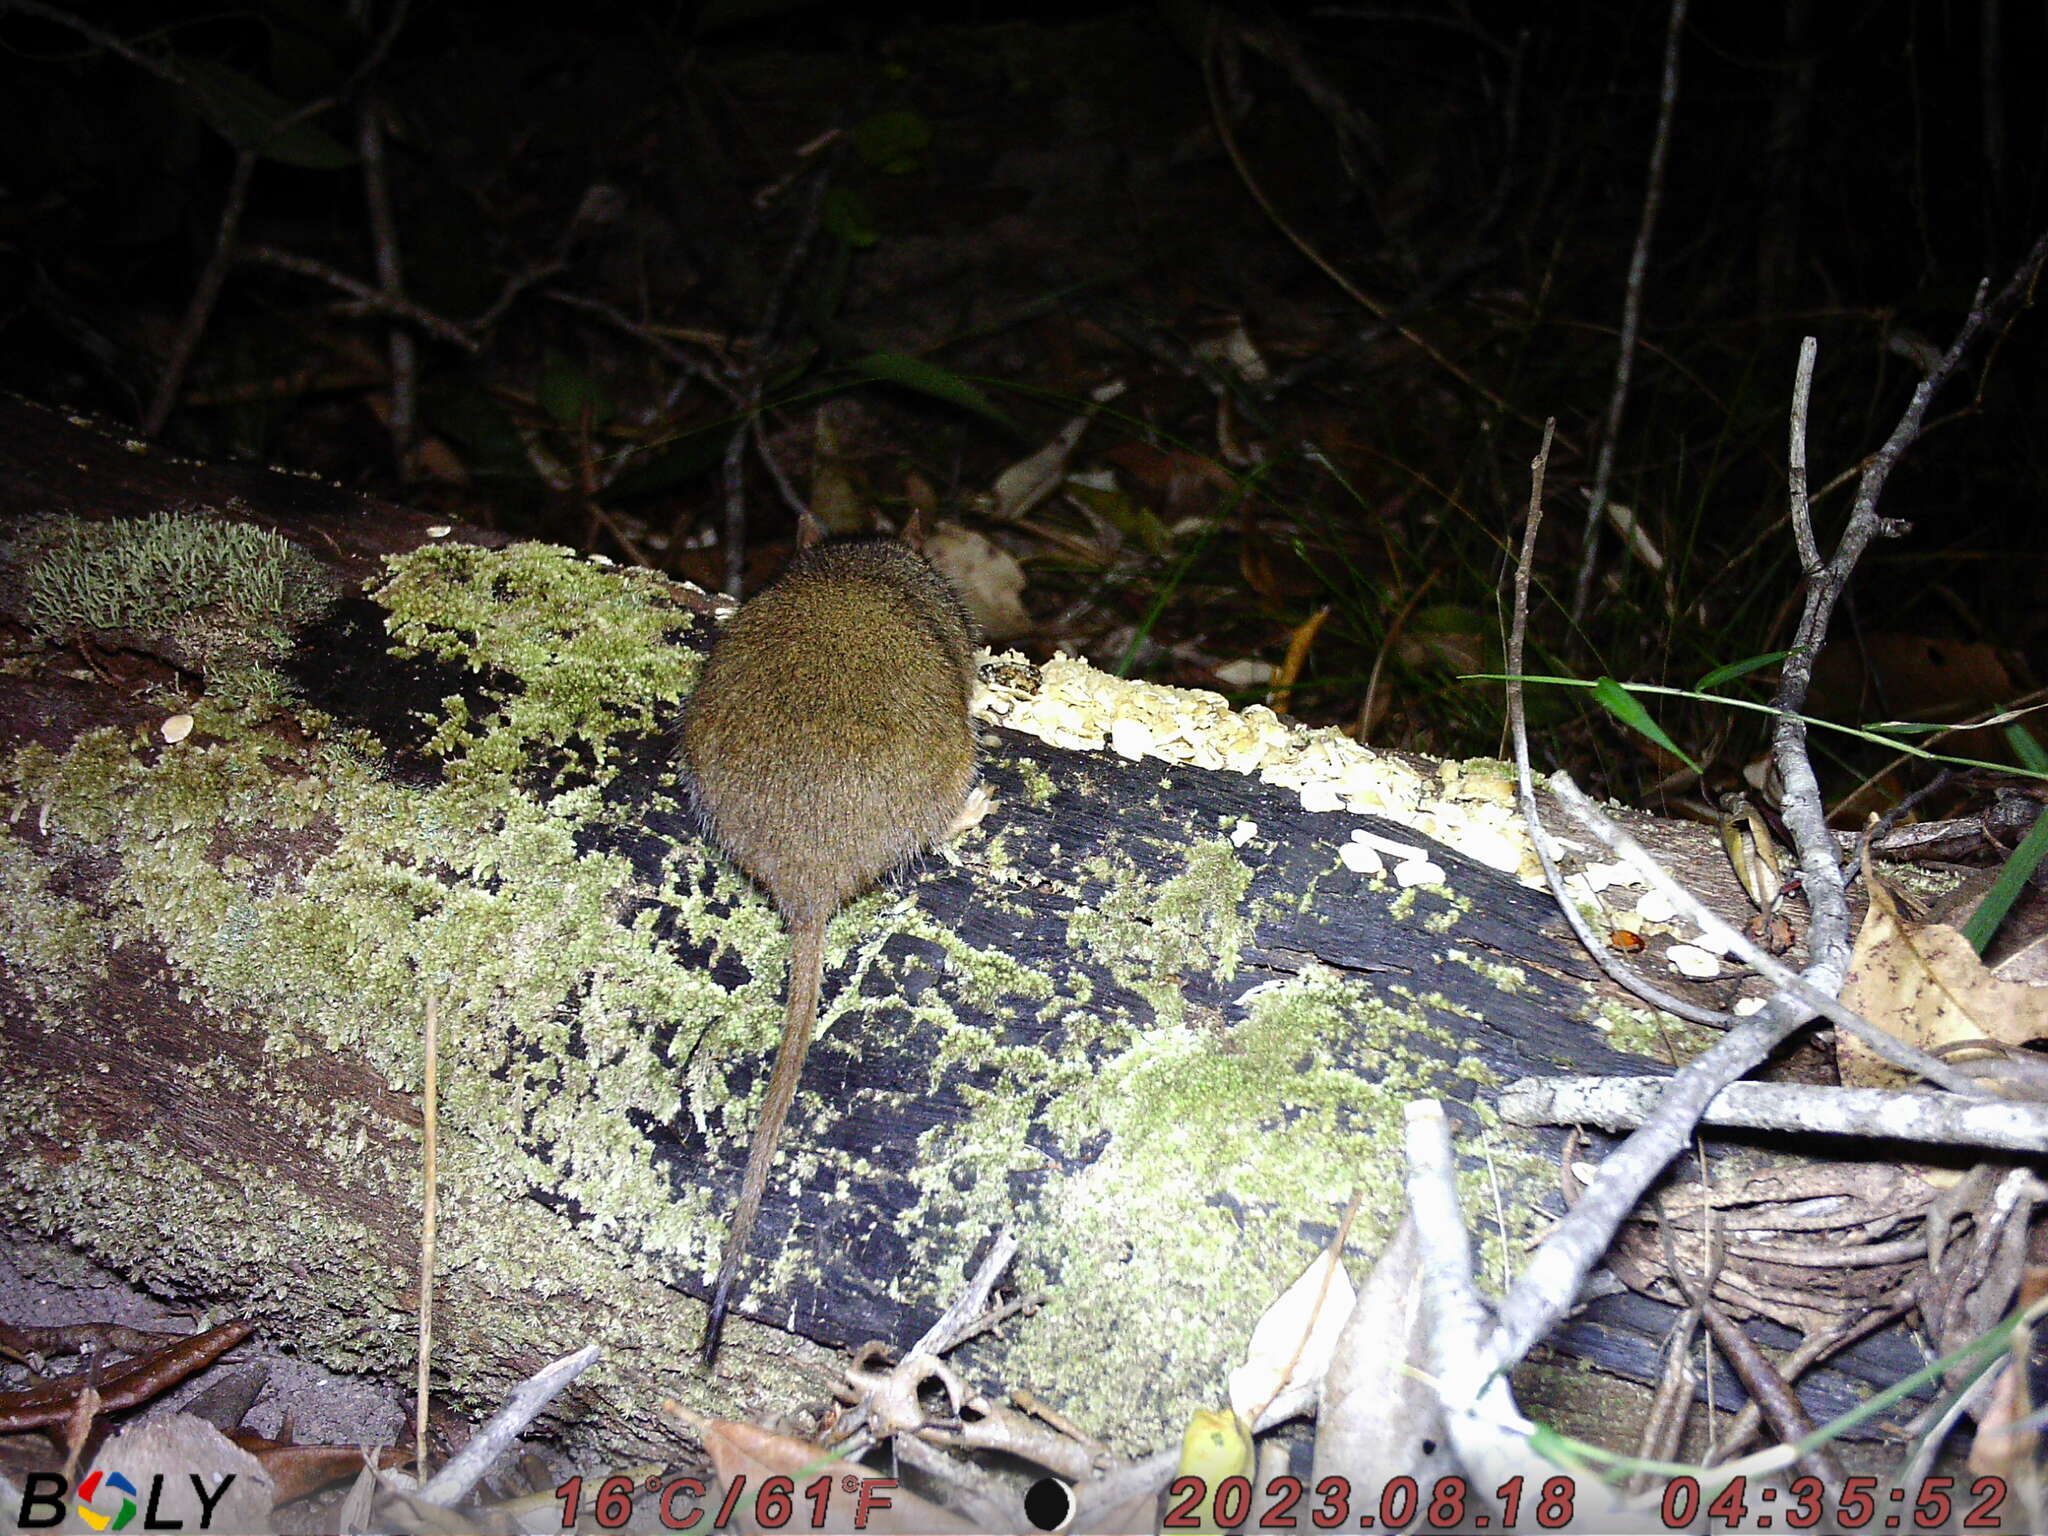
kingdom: Animalia
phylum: Chordata
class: Mammalia
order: Dasyuromorphia
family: Dasyuridae
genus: Antechinus
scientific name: Antechinus flavipes
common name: Yellow-footed antechinus
